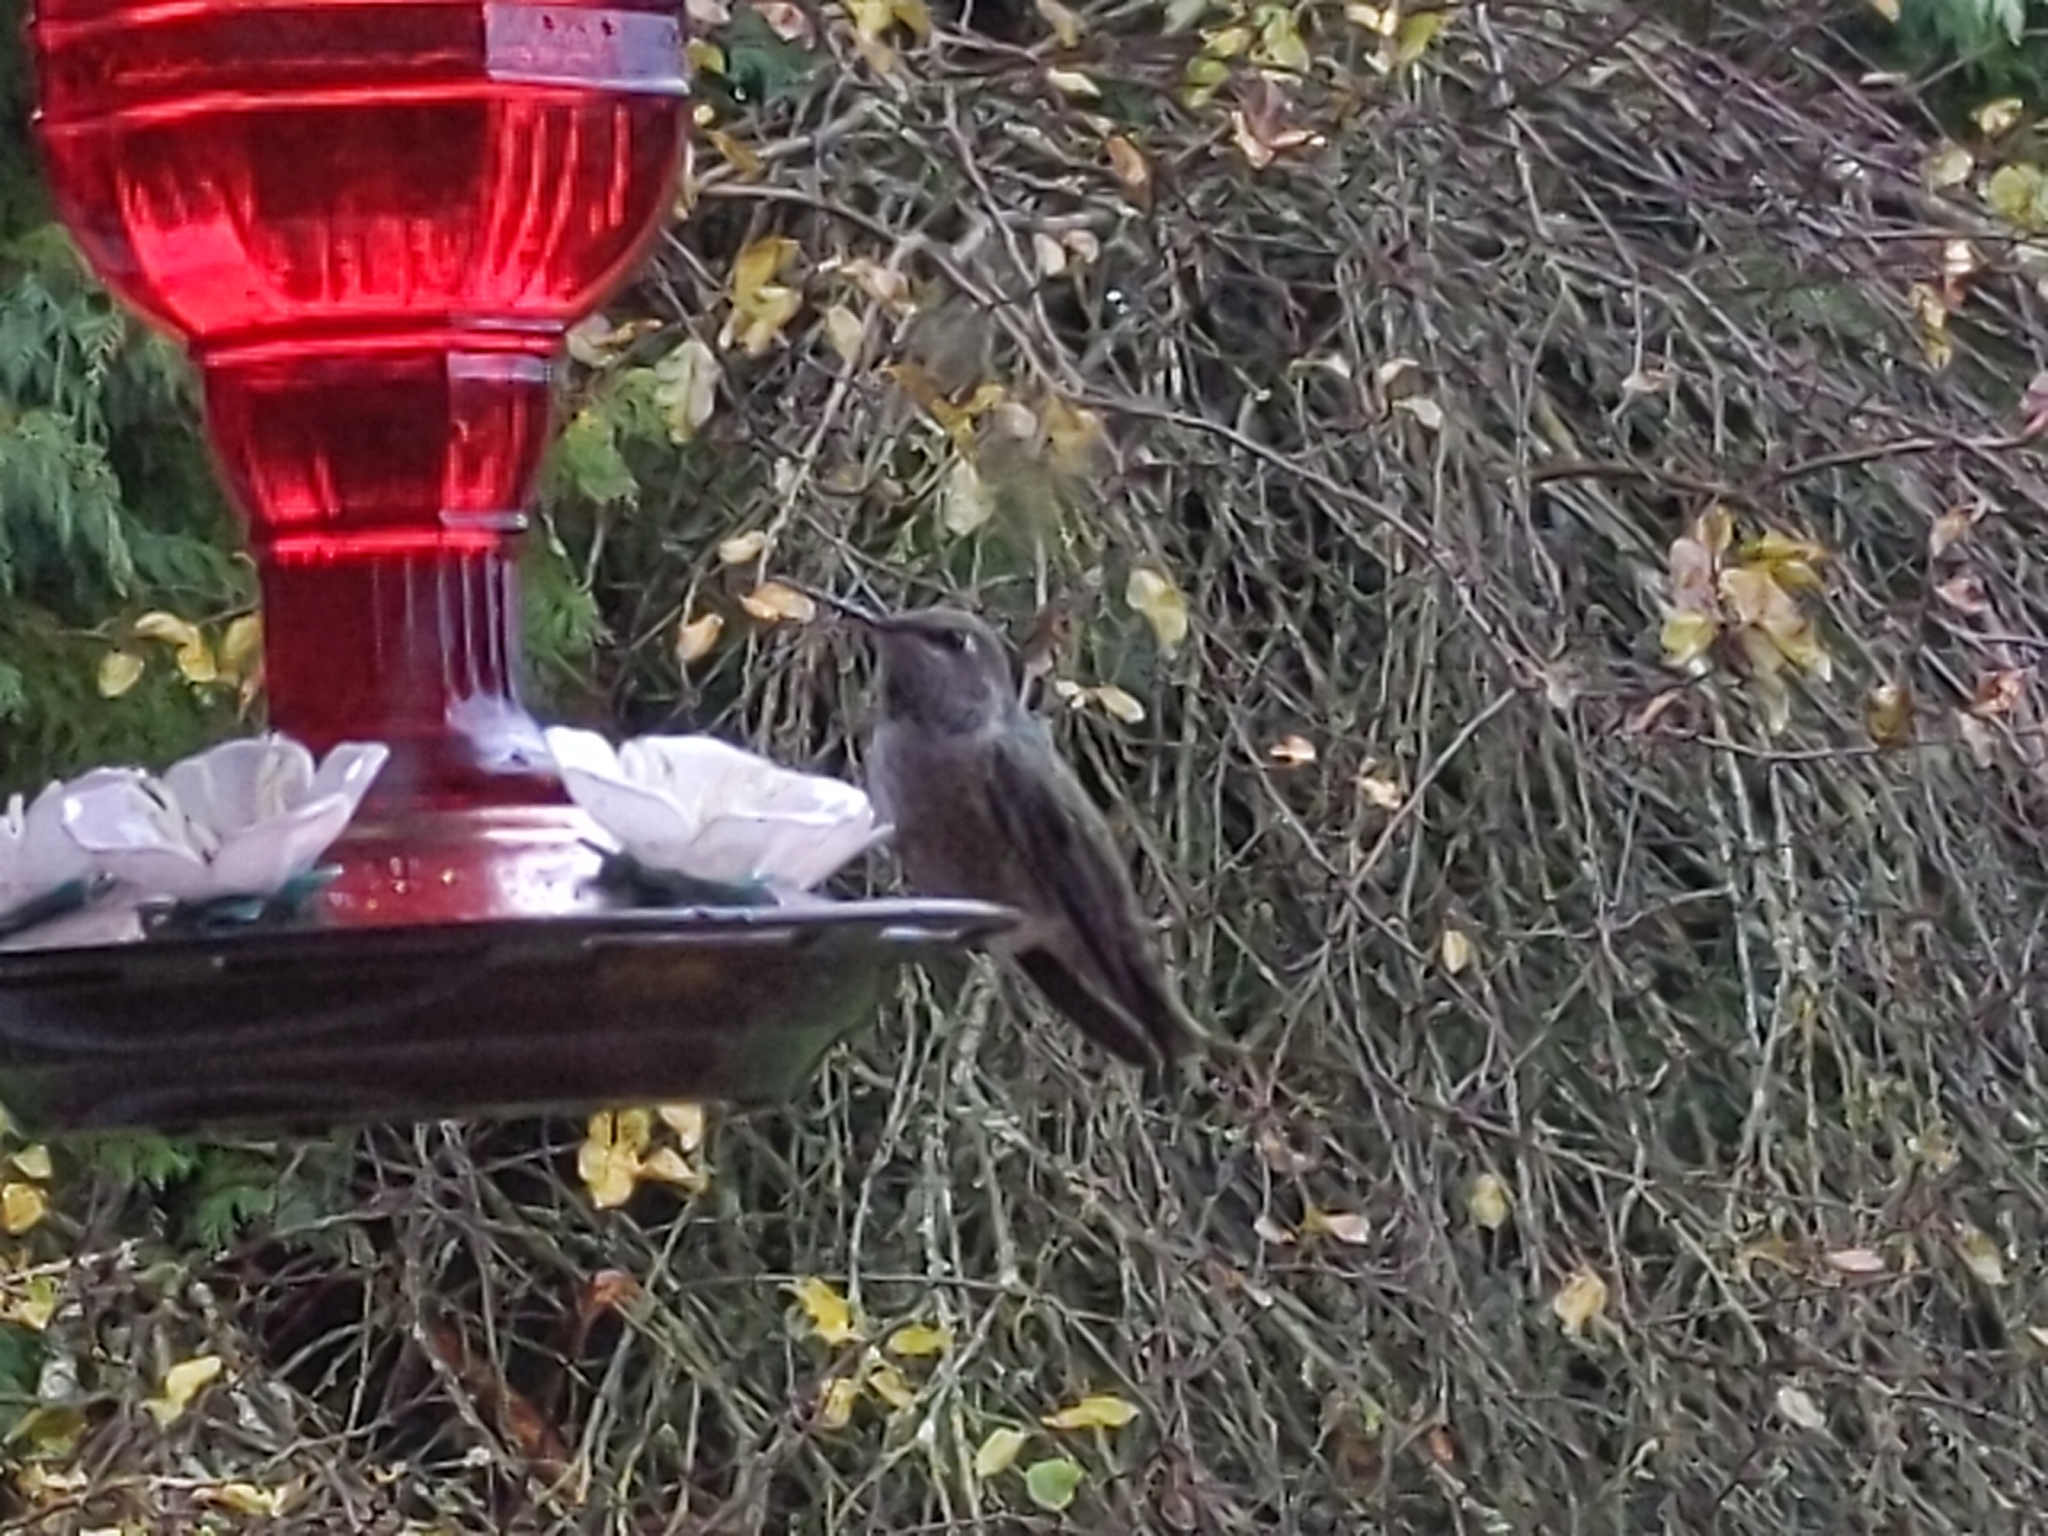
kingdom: Animalia
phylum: Chordata
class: Aves
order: Apodiformes
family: Trochilidae
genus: Calypte
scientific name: Calypte anna
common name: Anna's hummingbird
